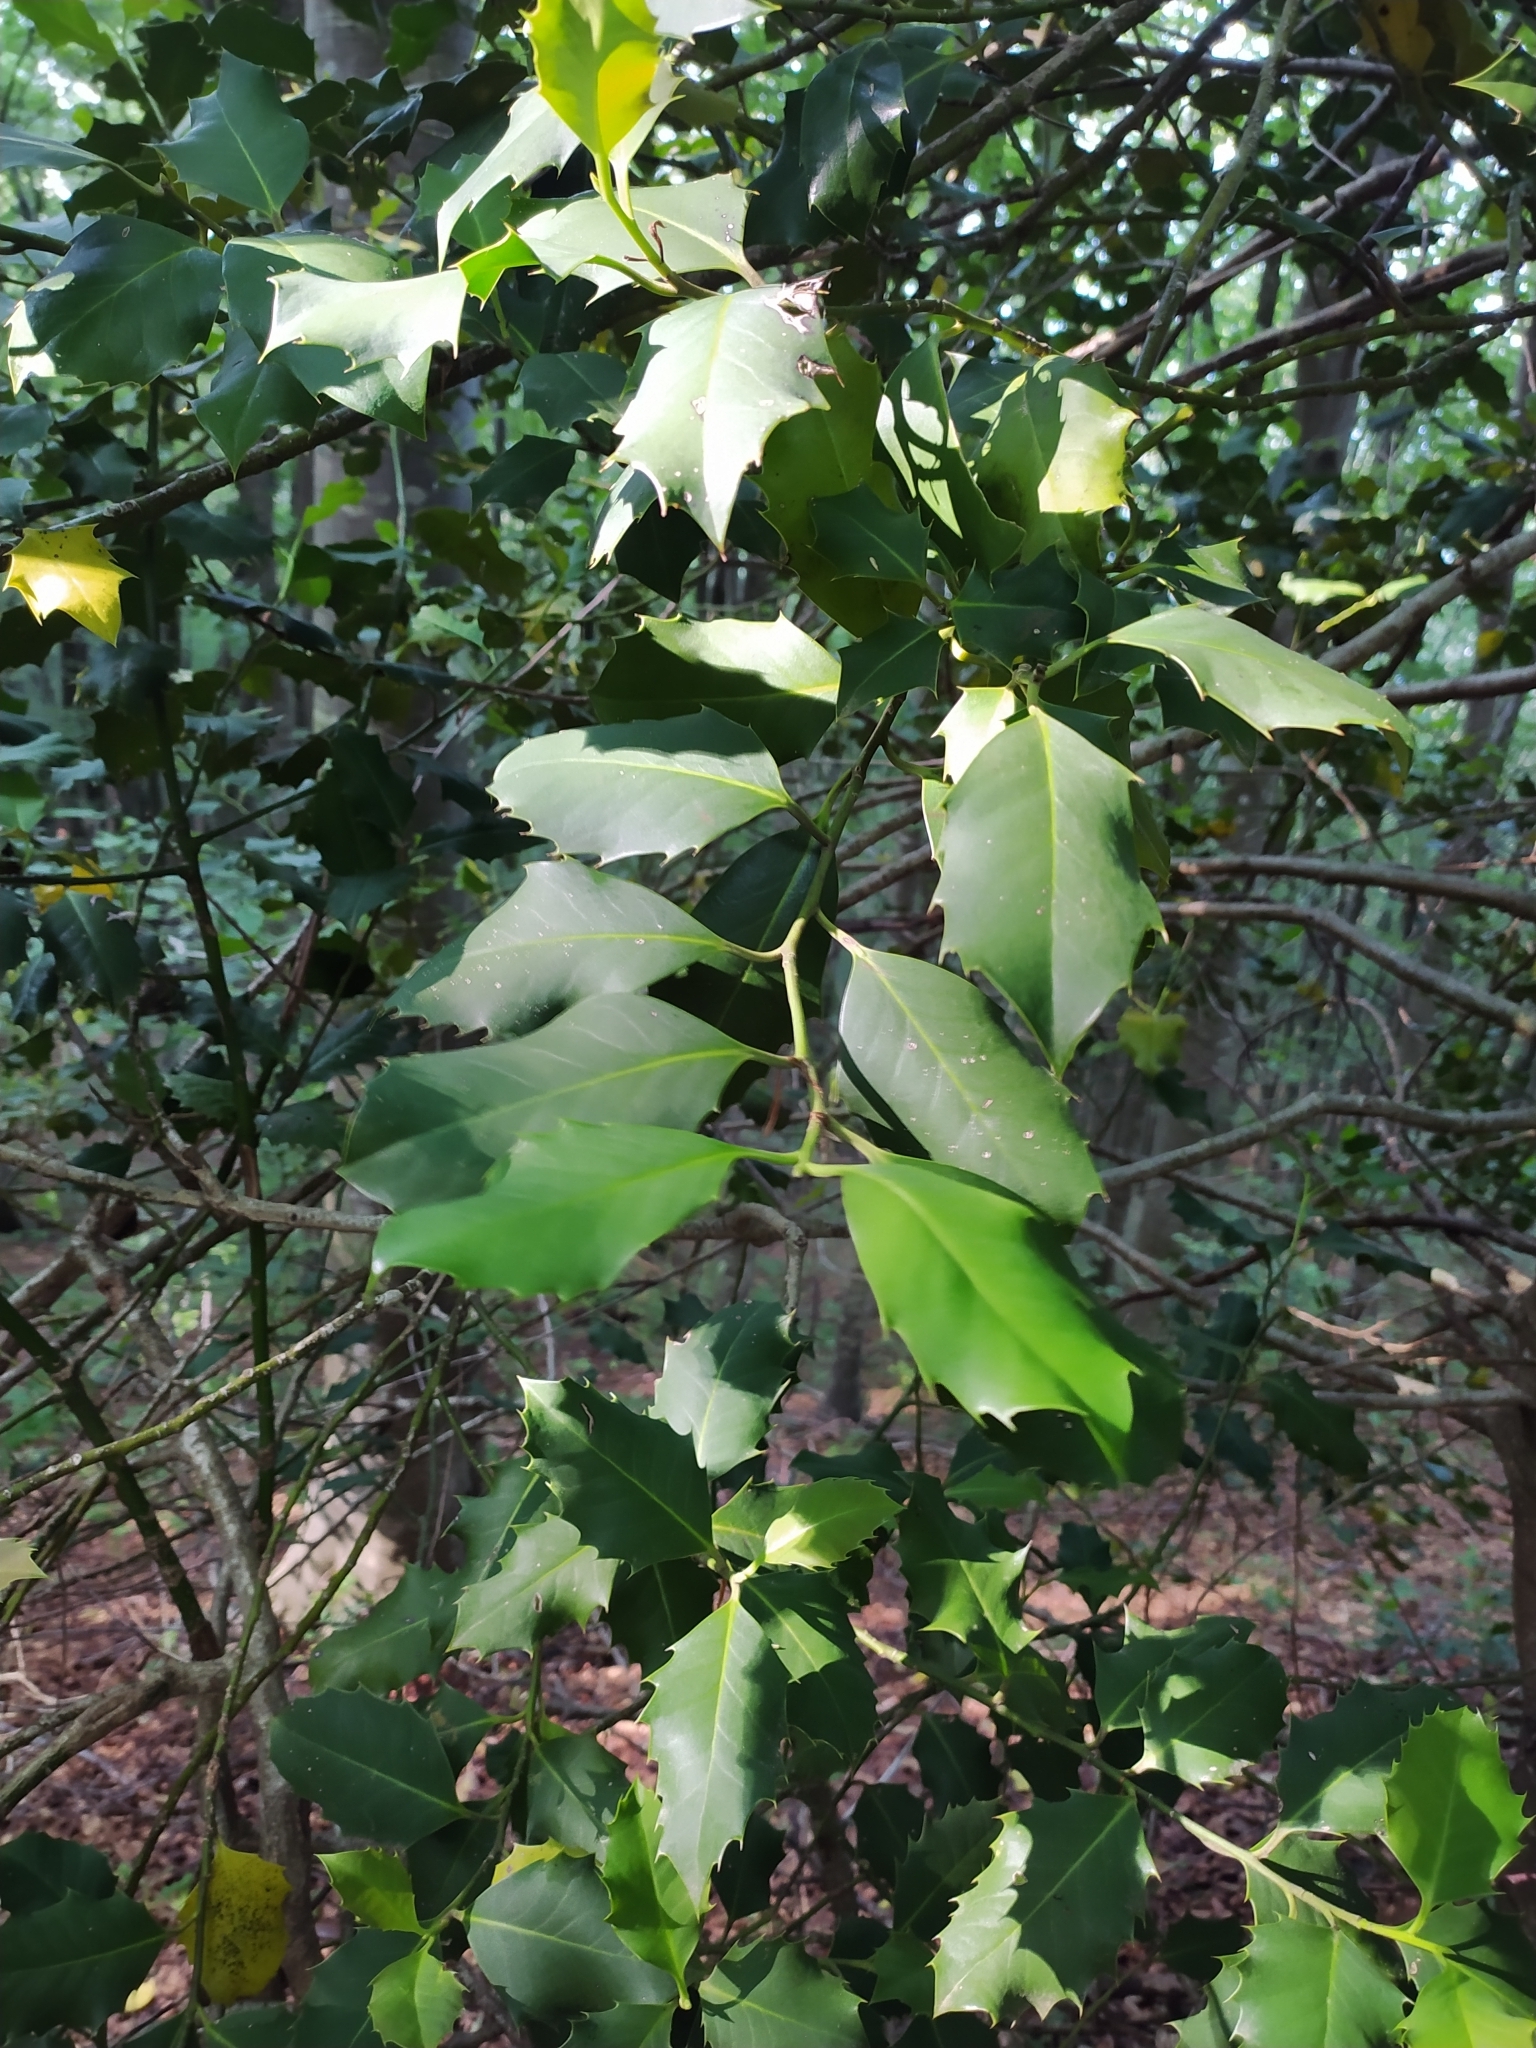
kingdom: Plantae
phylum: Tracheophyta
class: Magnoliopsida
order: Aquifoliales
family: Aquifoliaceae
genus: Ilex
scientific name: Ilex aquifolium
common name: English holly
